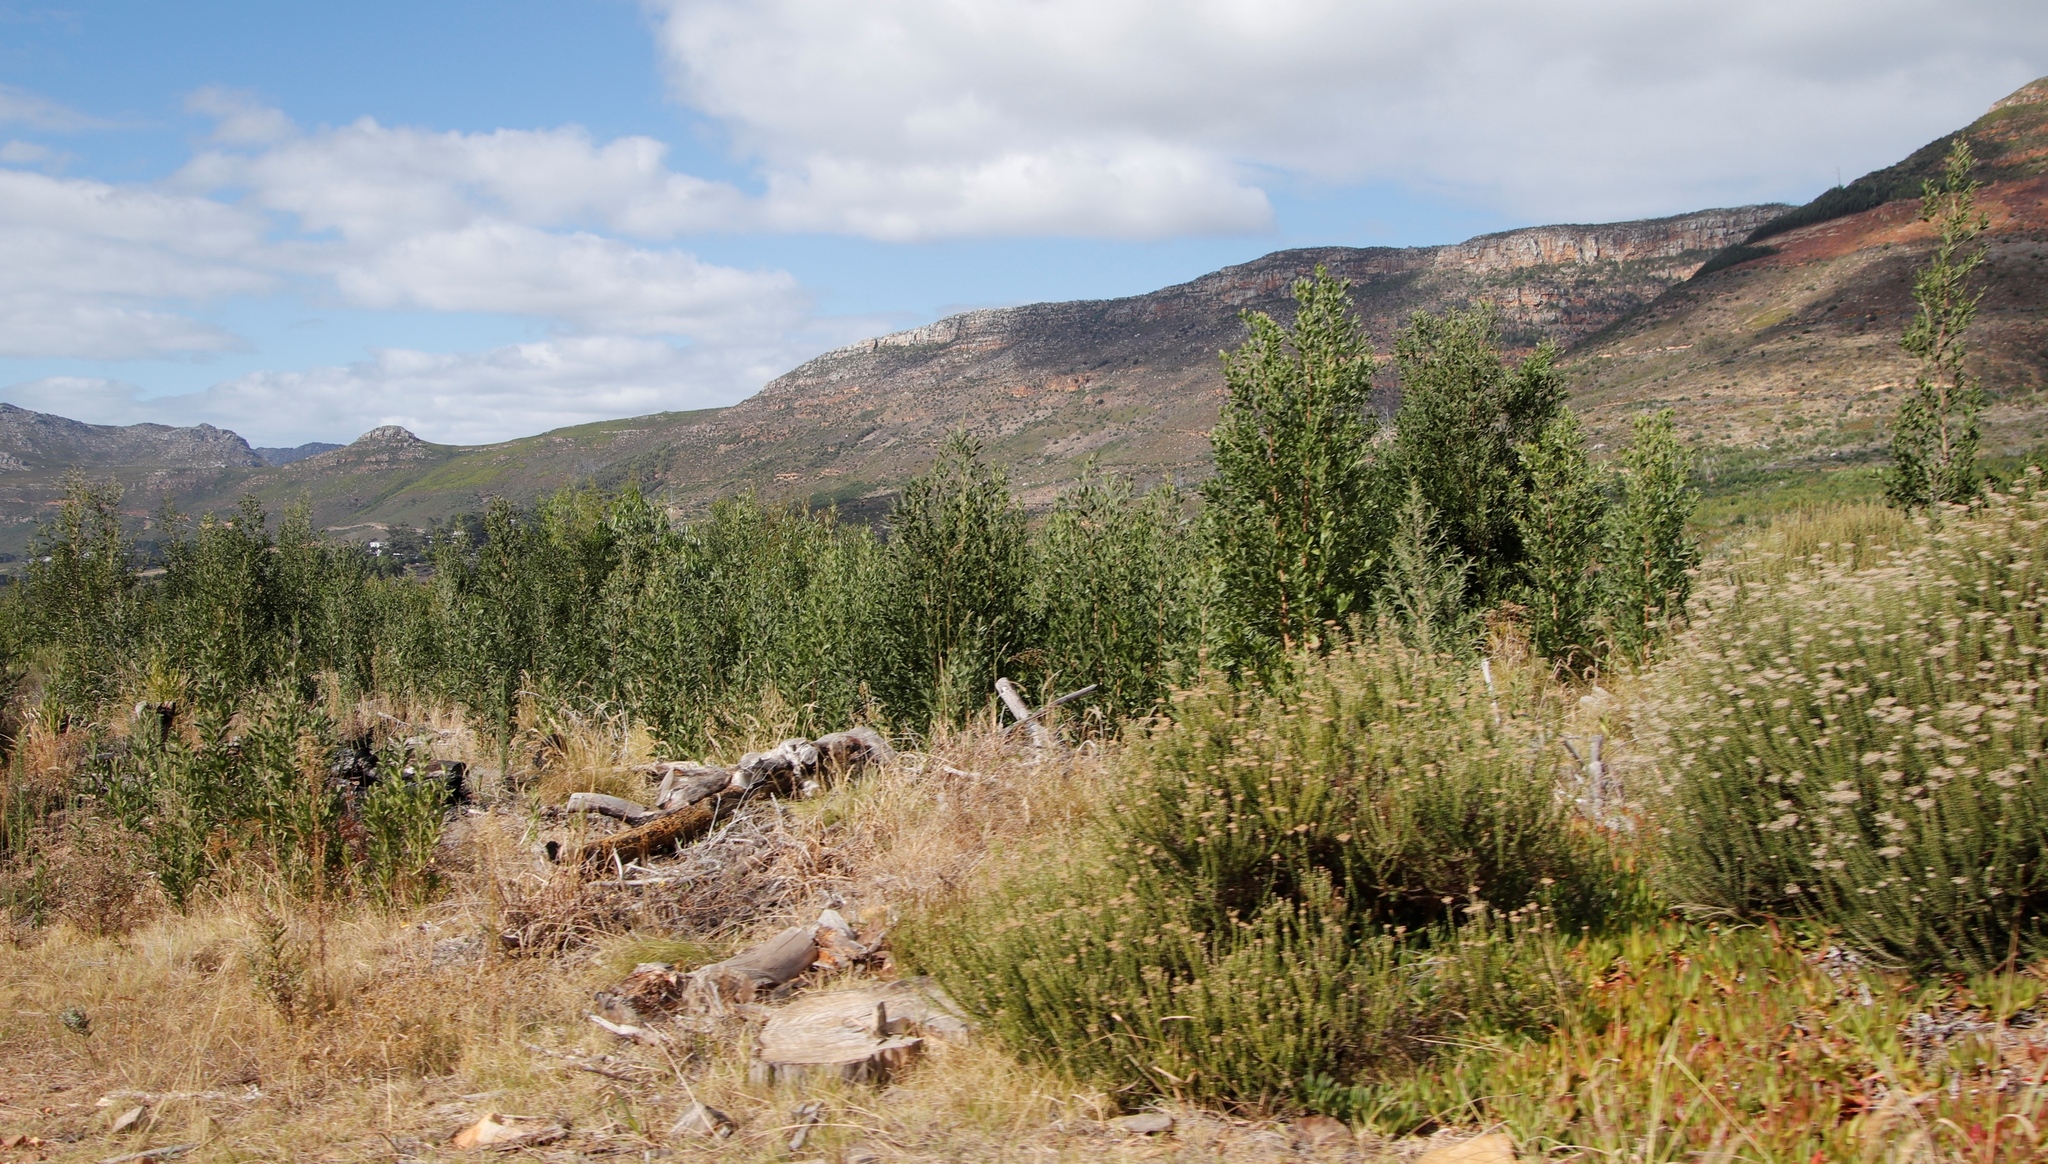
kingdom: Plantae
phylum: Tracheophyta
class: Magnoliopsida
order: Fabales
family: Fabaceae
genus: Acacia
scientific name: Acacia melanoxylon
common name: Blackwood
